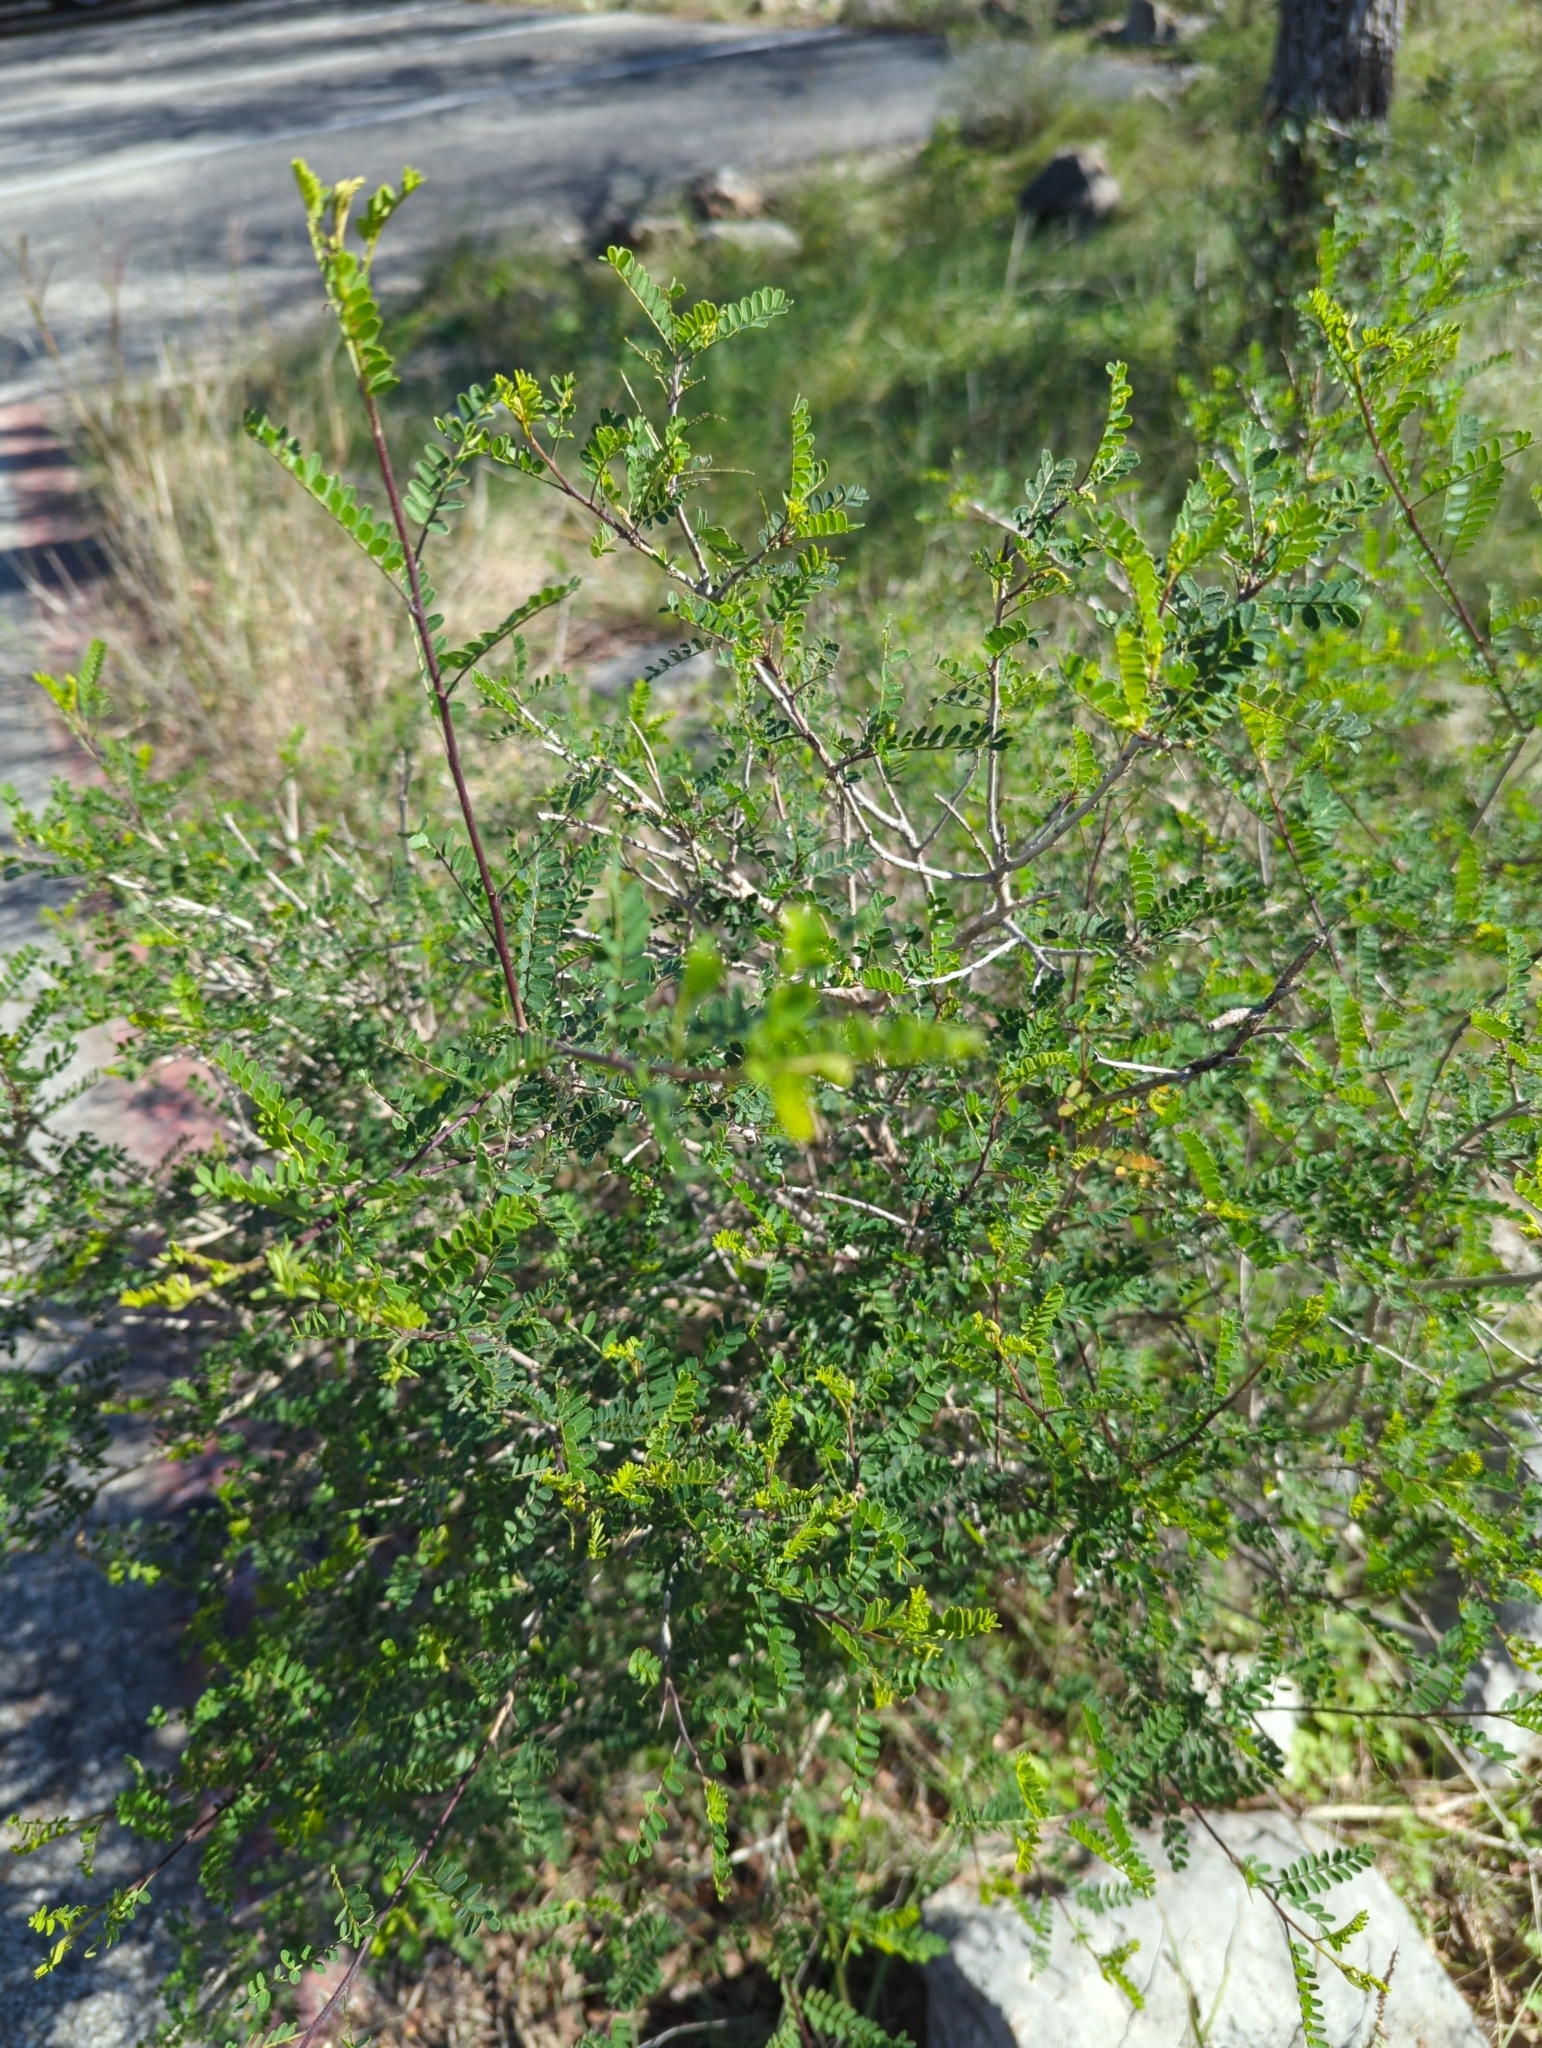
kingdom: Plantae
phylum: Tracheophyta
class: Magnoliopsida
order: Fabales
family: Fabaceae
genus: Eysenhardtia
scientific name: Eysenhardtia texana
